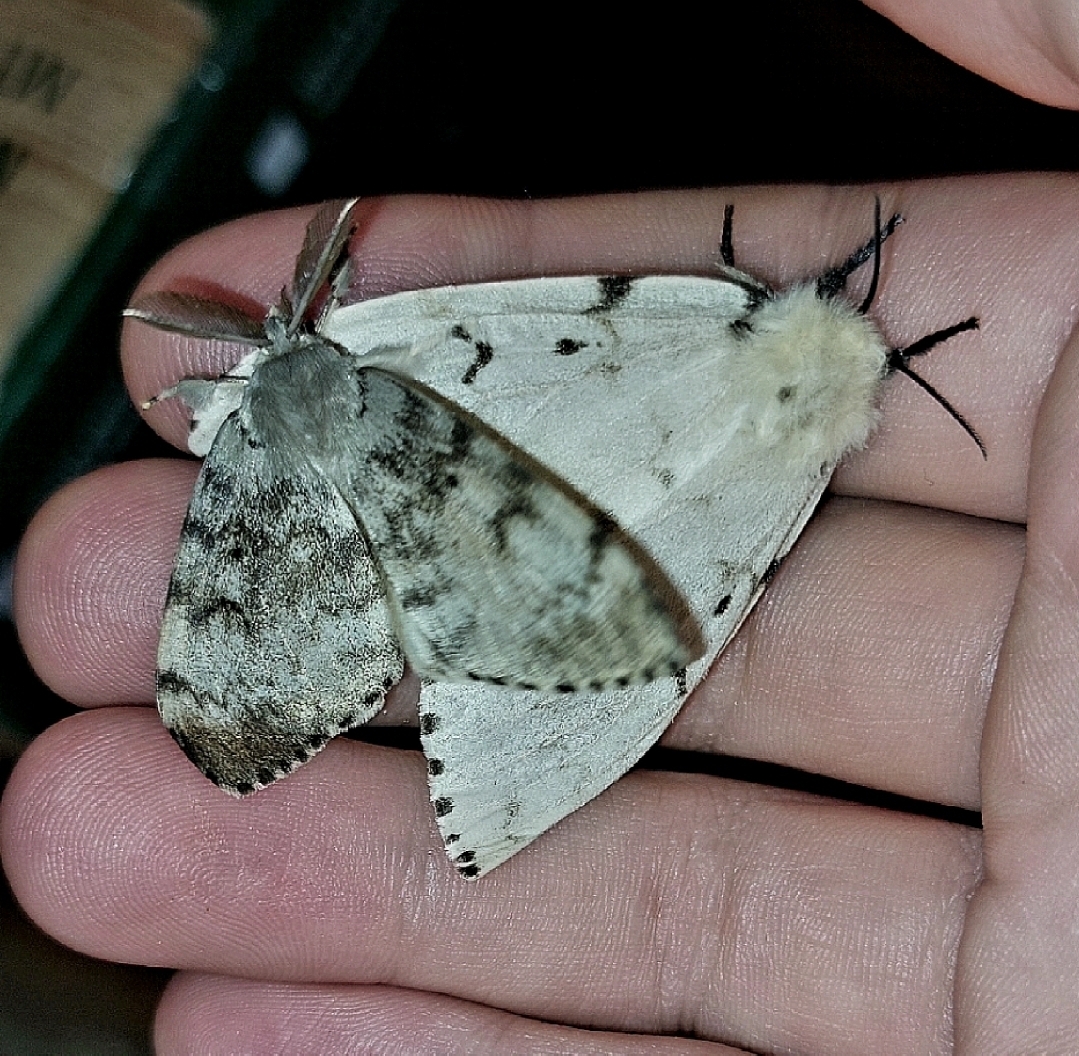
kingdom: Animalia
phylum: Arthropoda
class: Insecta
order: Lepidoptera
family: Erebidae
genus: Lymantria
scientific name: Lymantria dispar
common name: Gypsy moth
